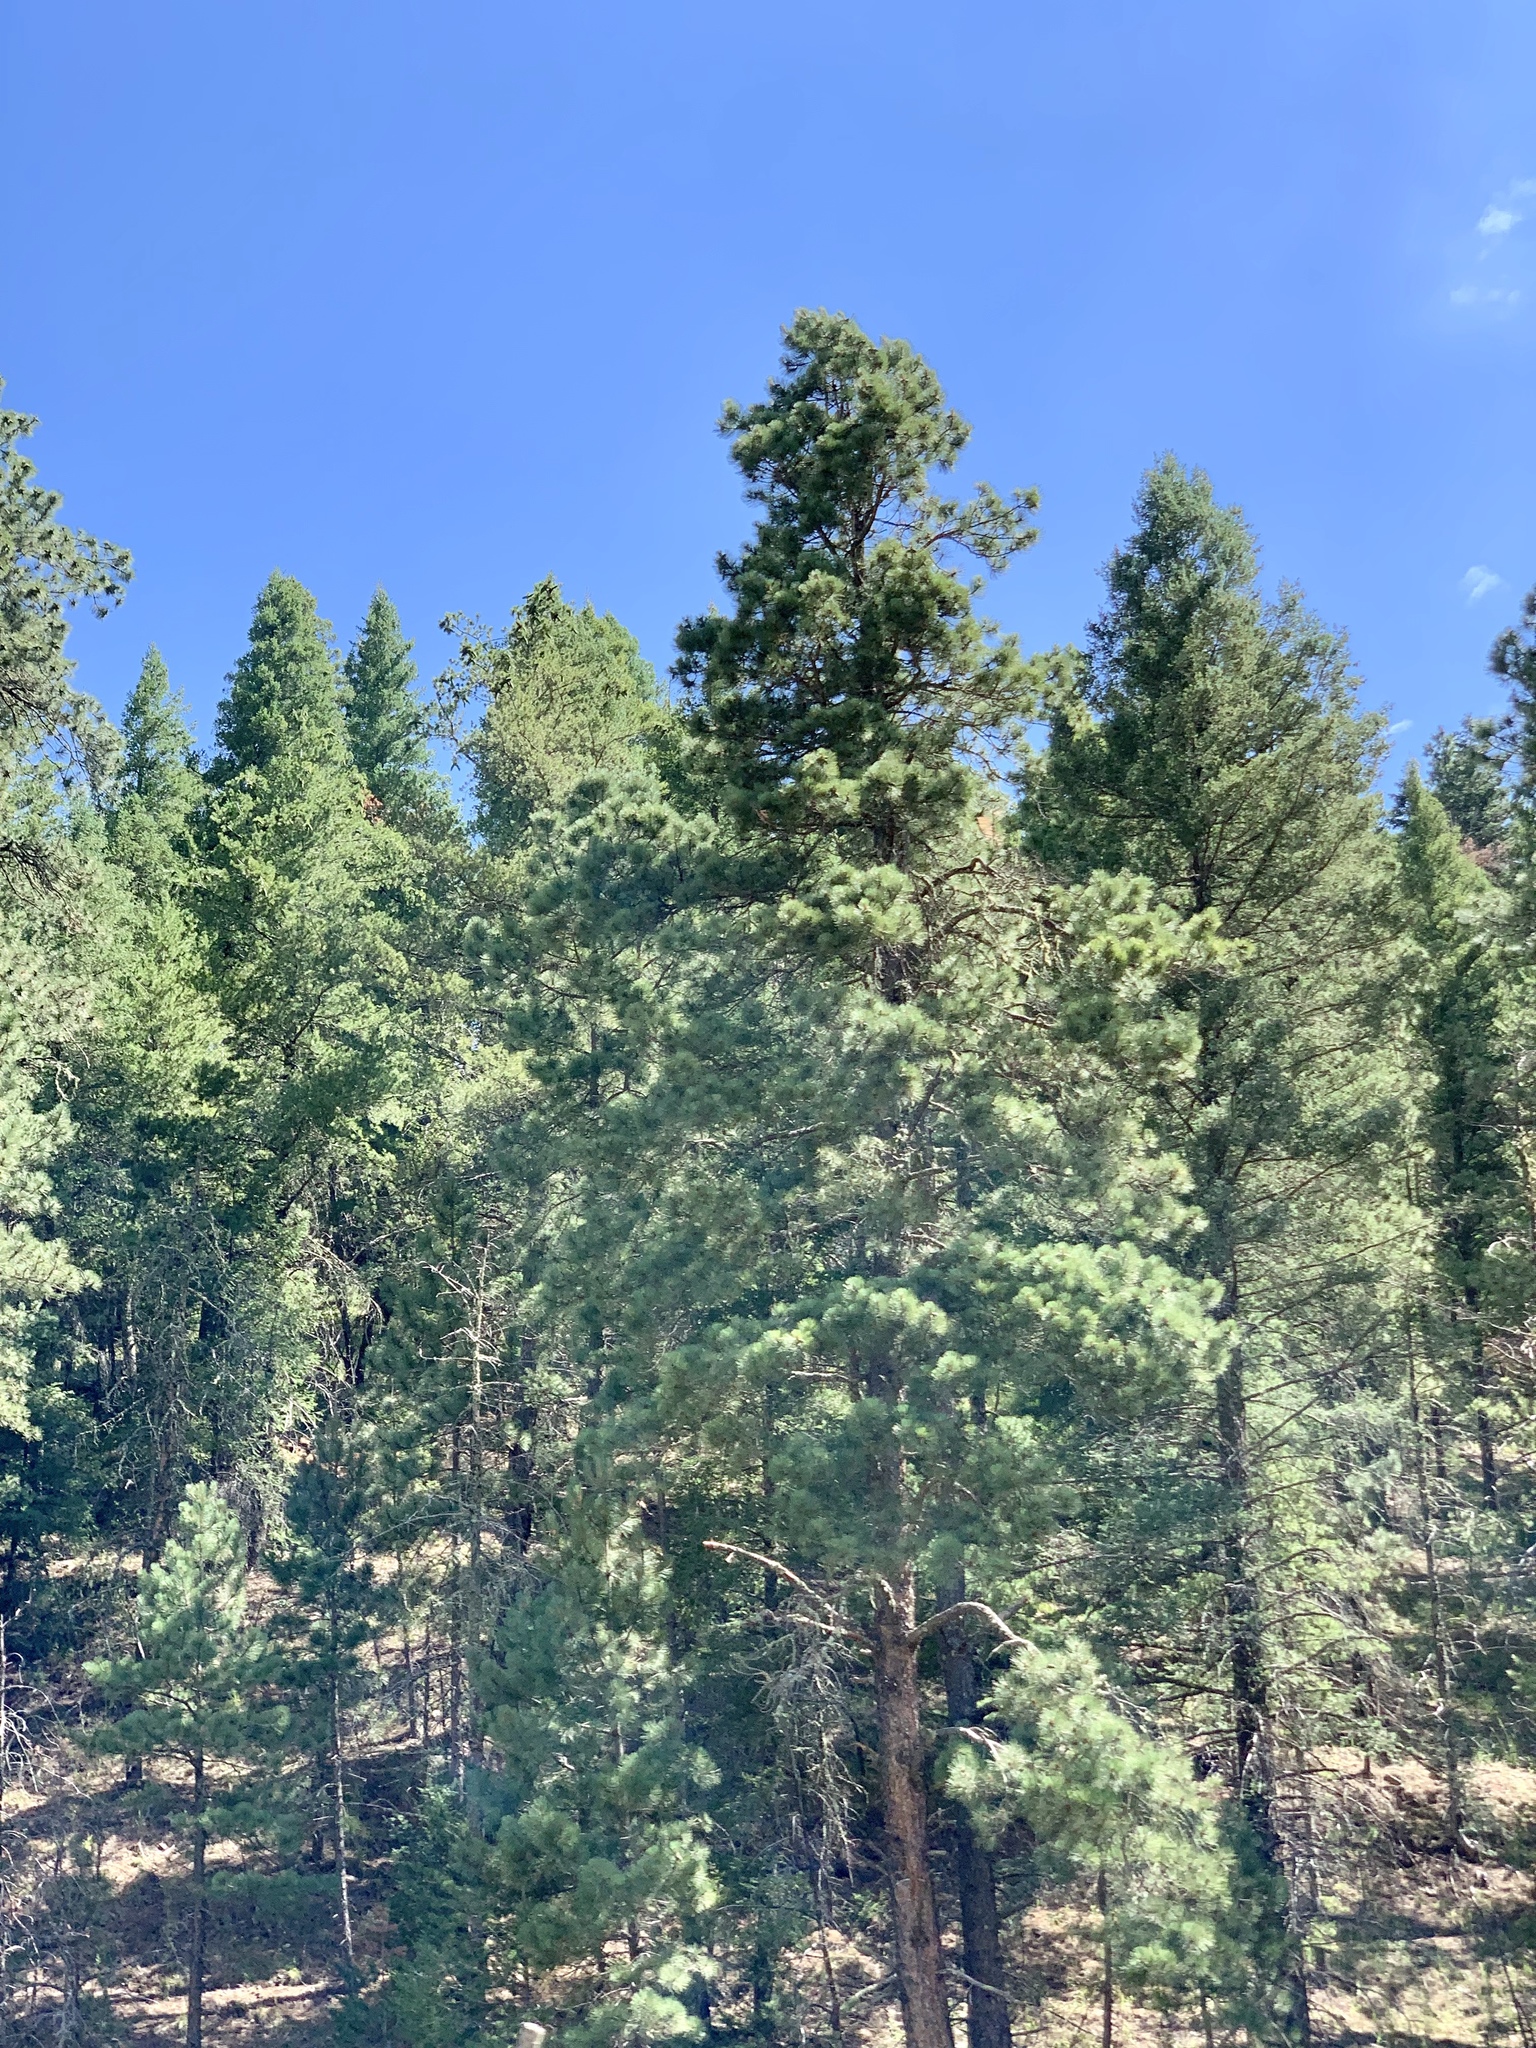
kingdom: Plantae
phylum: Tracheophyta
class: Pinopsida
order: Pinales
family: Pinaceae
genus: Pinus
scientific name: Pinus ponderosa
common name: Western yellow-pine
